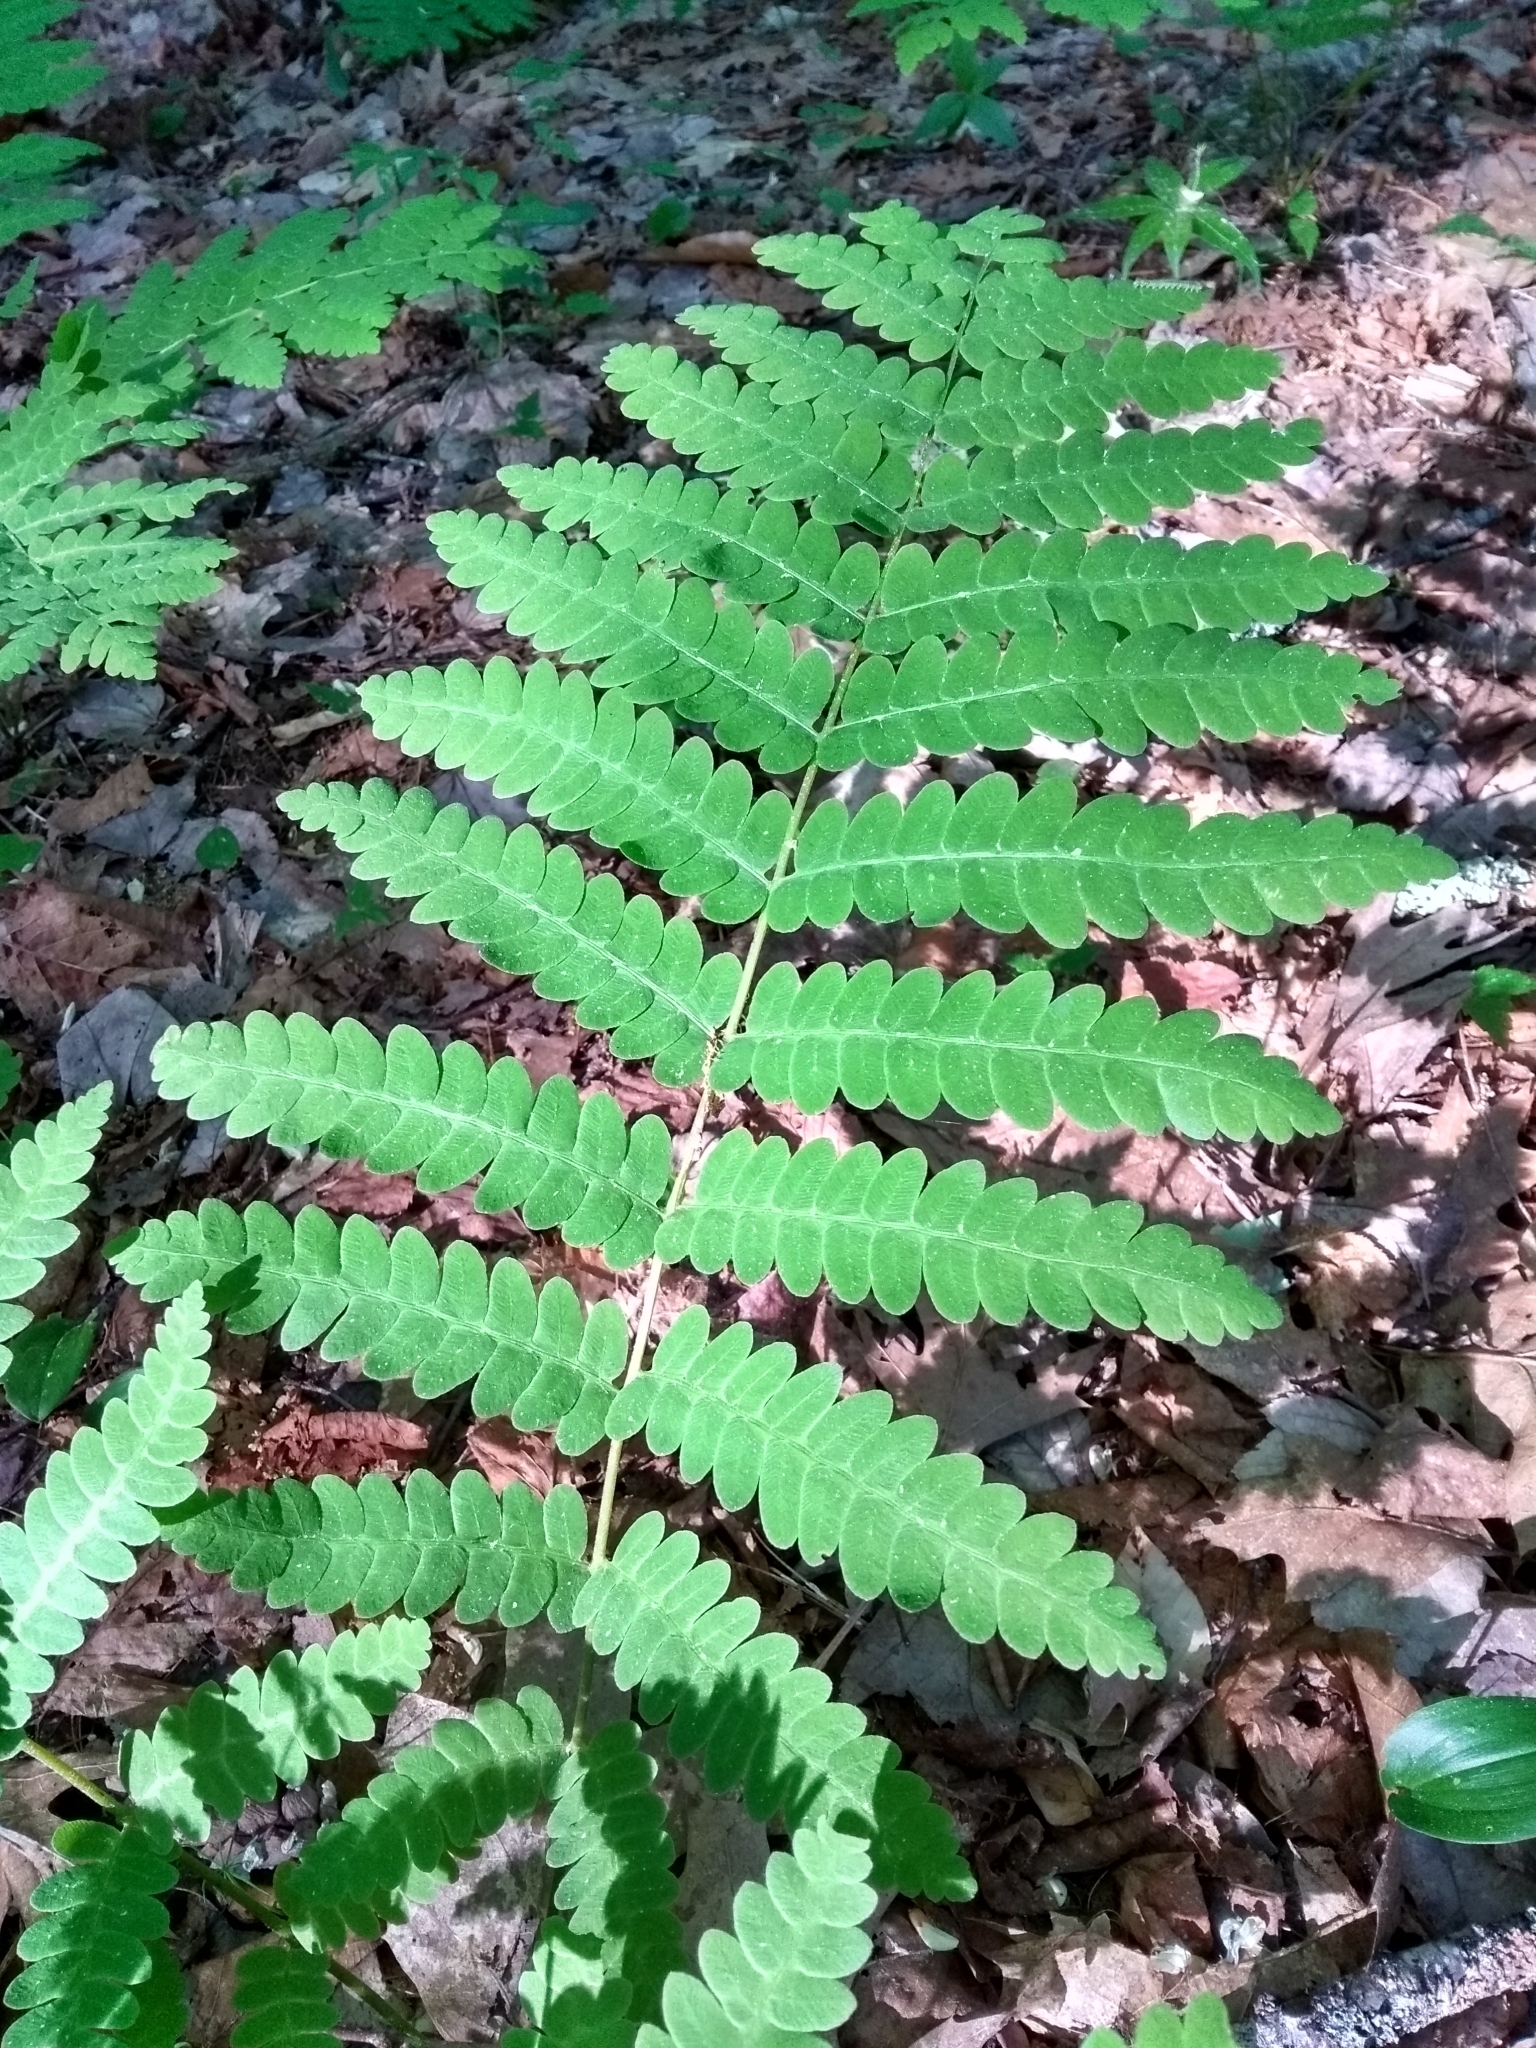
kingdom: Plantae
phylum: Tracheophyta
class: Polypodiopsida
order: Osmundales
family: Osmundaceae
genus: Claytosmunda
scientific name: Claytosmunda claytoniana
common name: Clayton's fern
